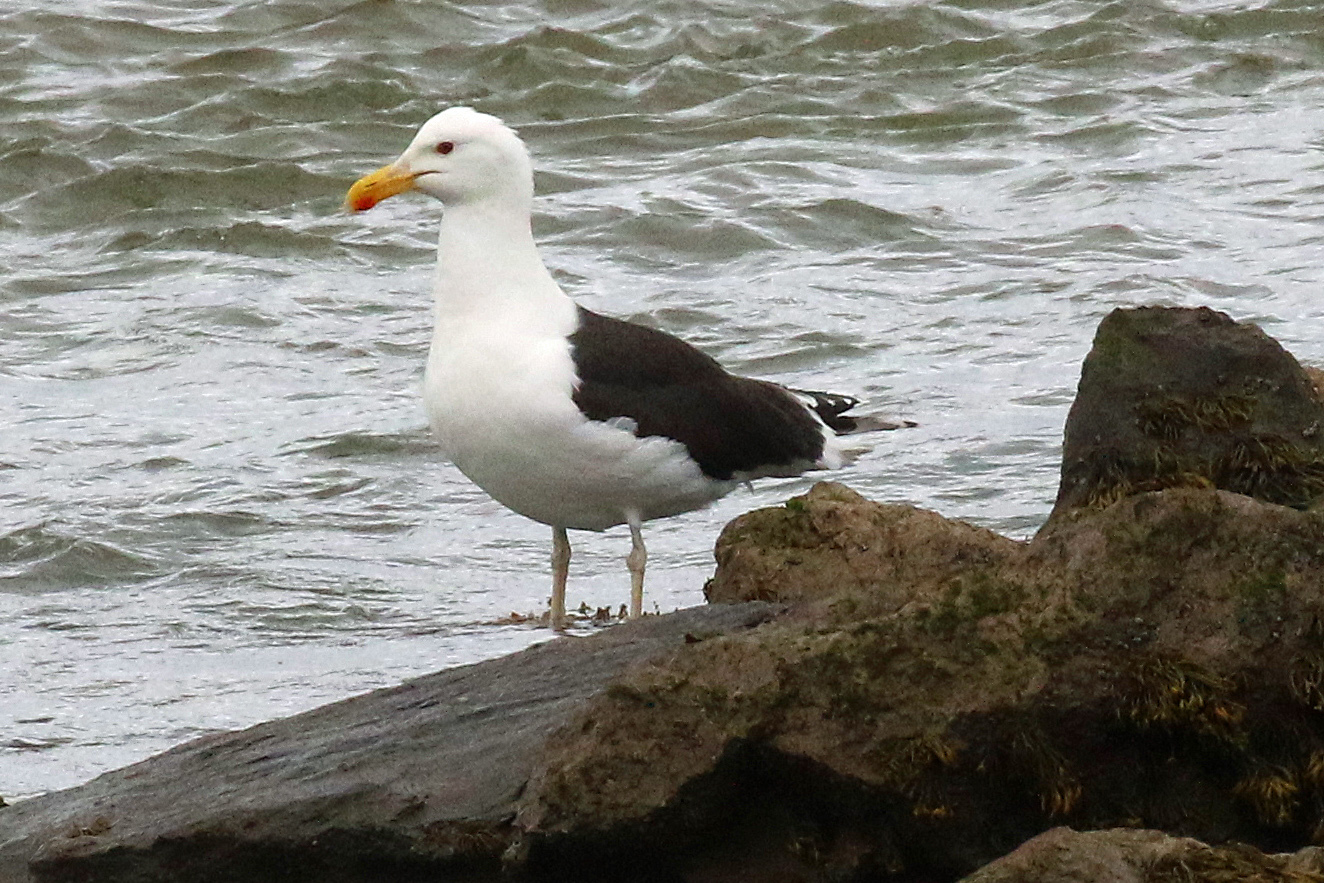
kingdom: Animalia
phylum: Chordata
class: Aves
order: Charadriiformes
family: Laridae
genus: Larus
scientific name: Larus marinus
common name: Great black-backed gull
